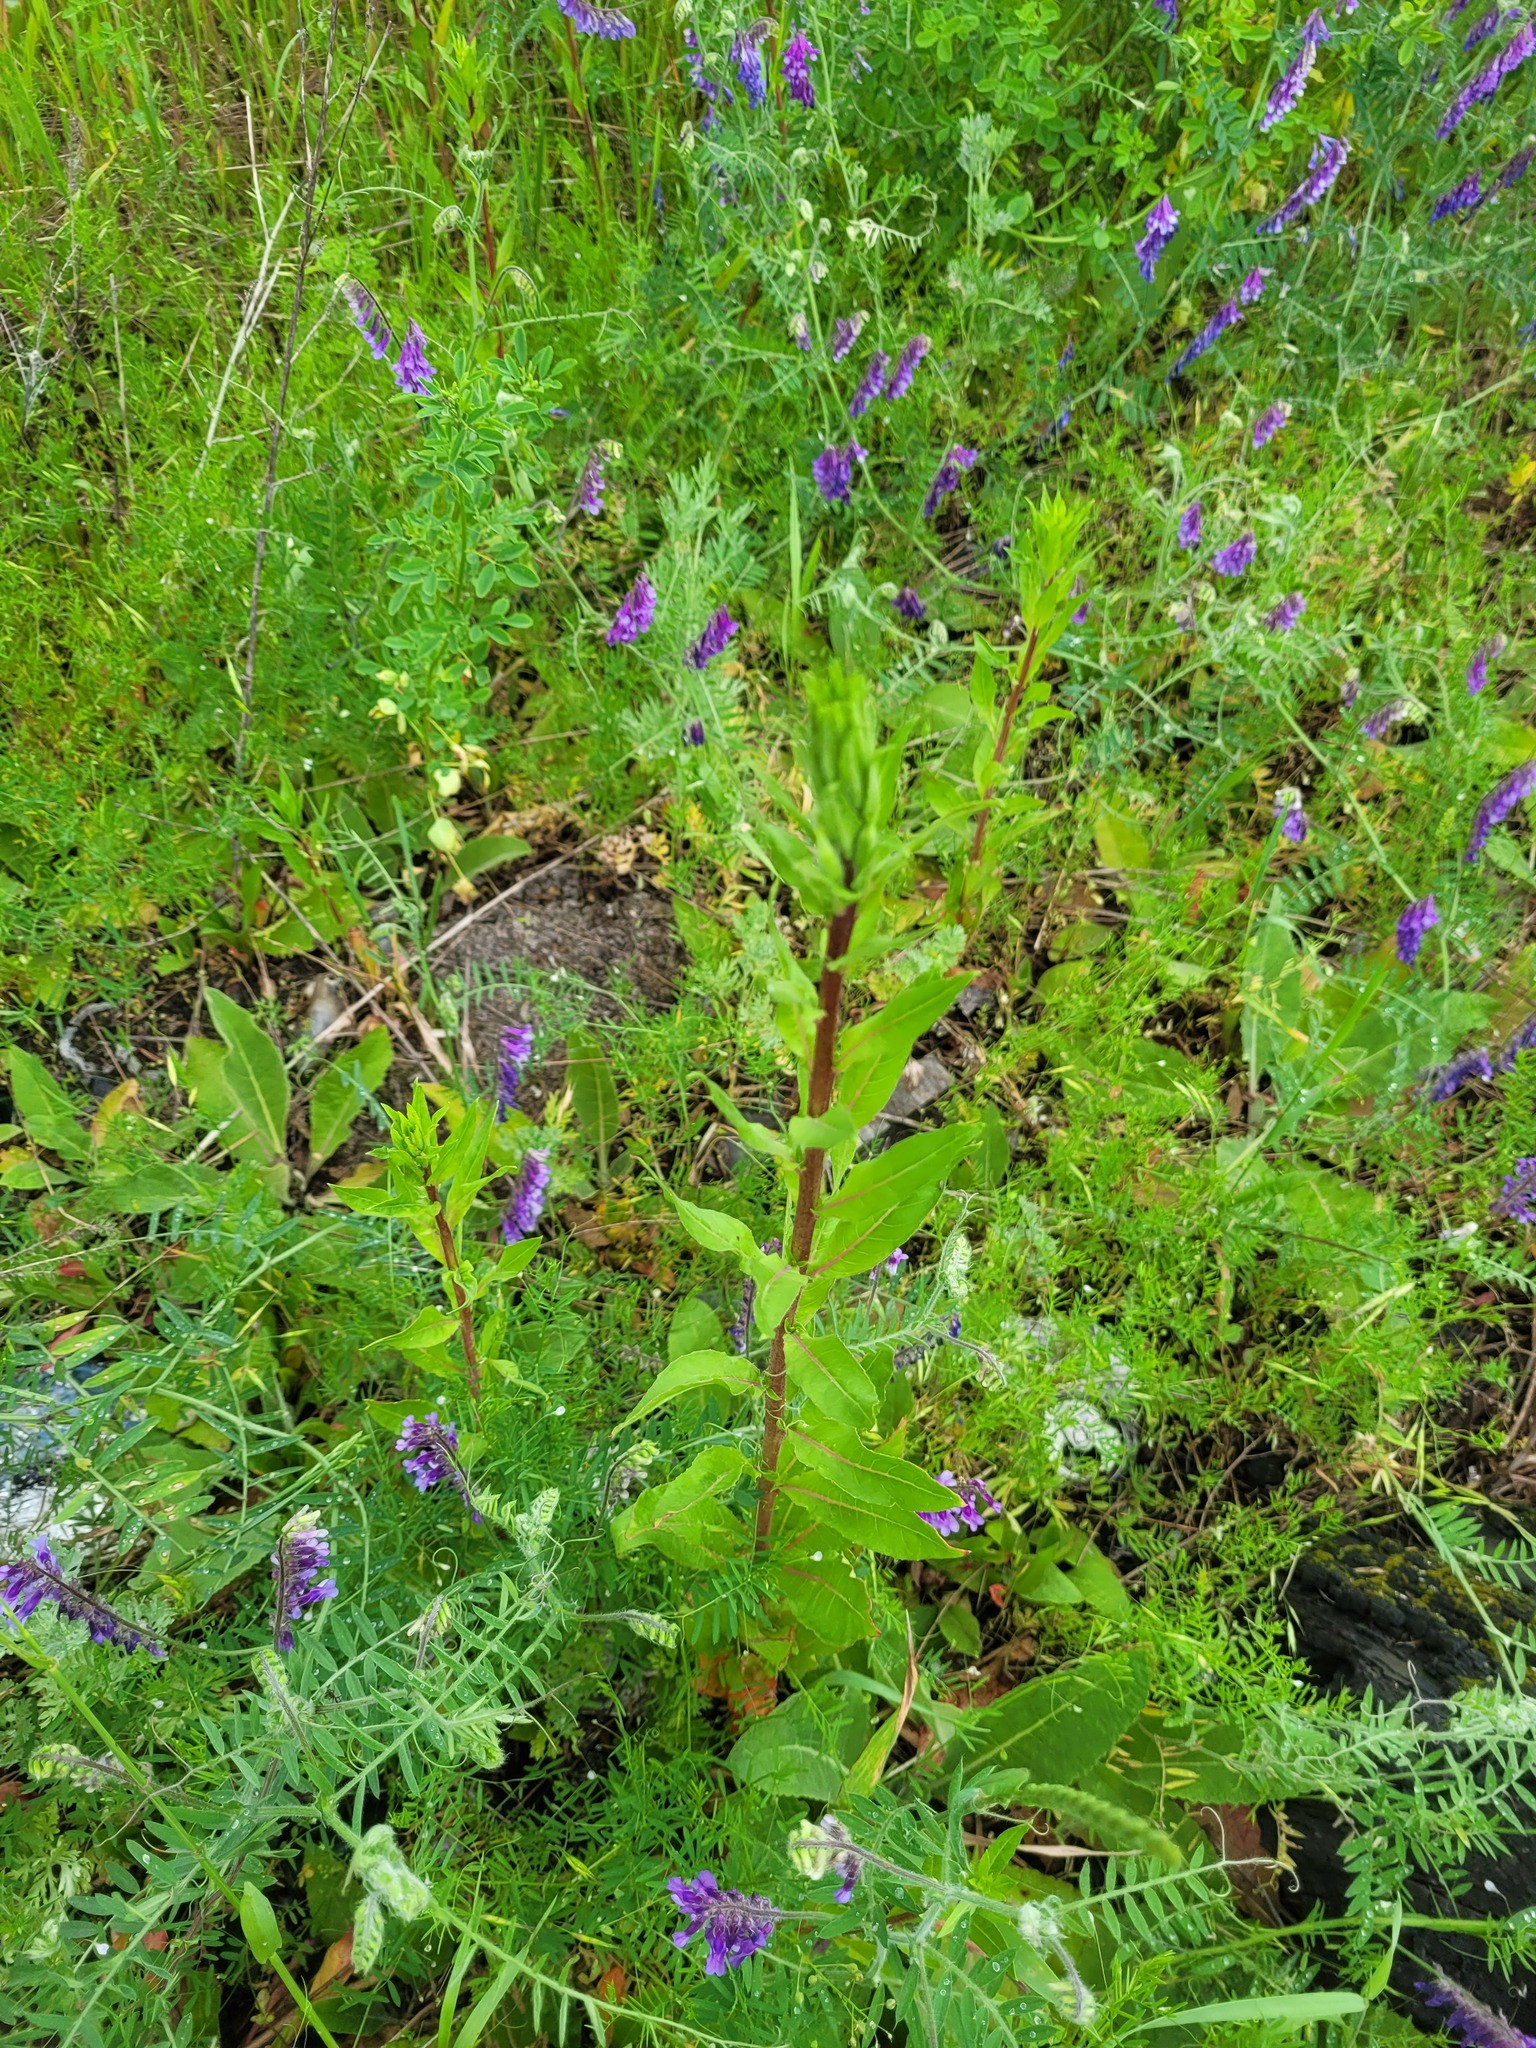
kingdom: Plantae
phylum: Tracheophyta
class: Magnoliopsida
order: Myrtales
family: Onagraceae
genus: Oenothera
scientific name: Oenothera rubricaulis
